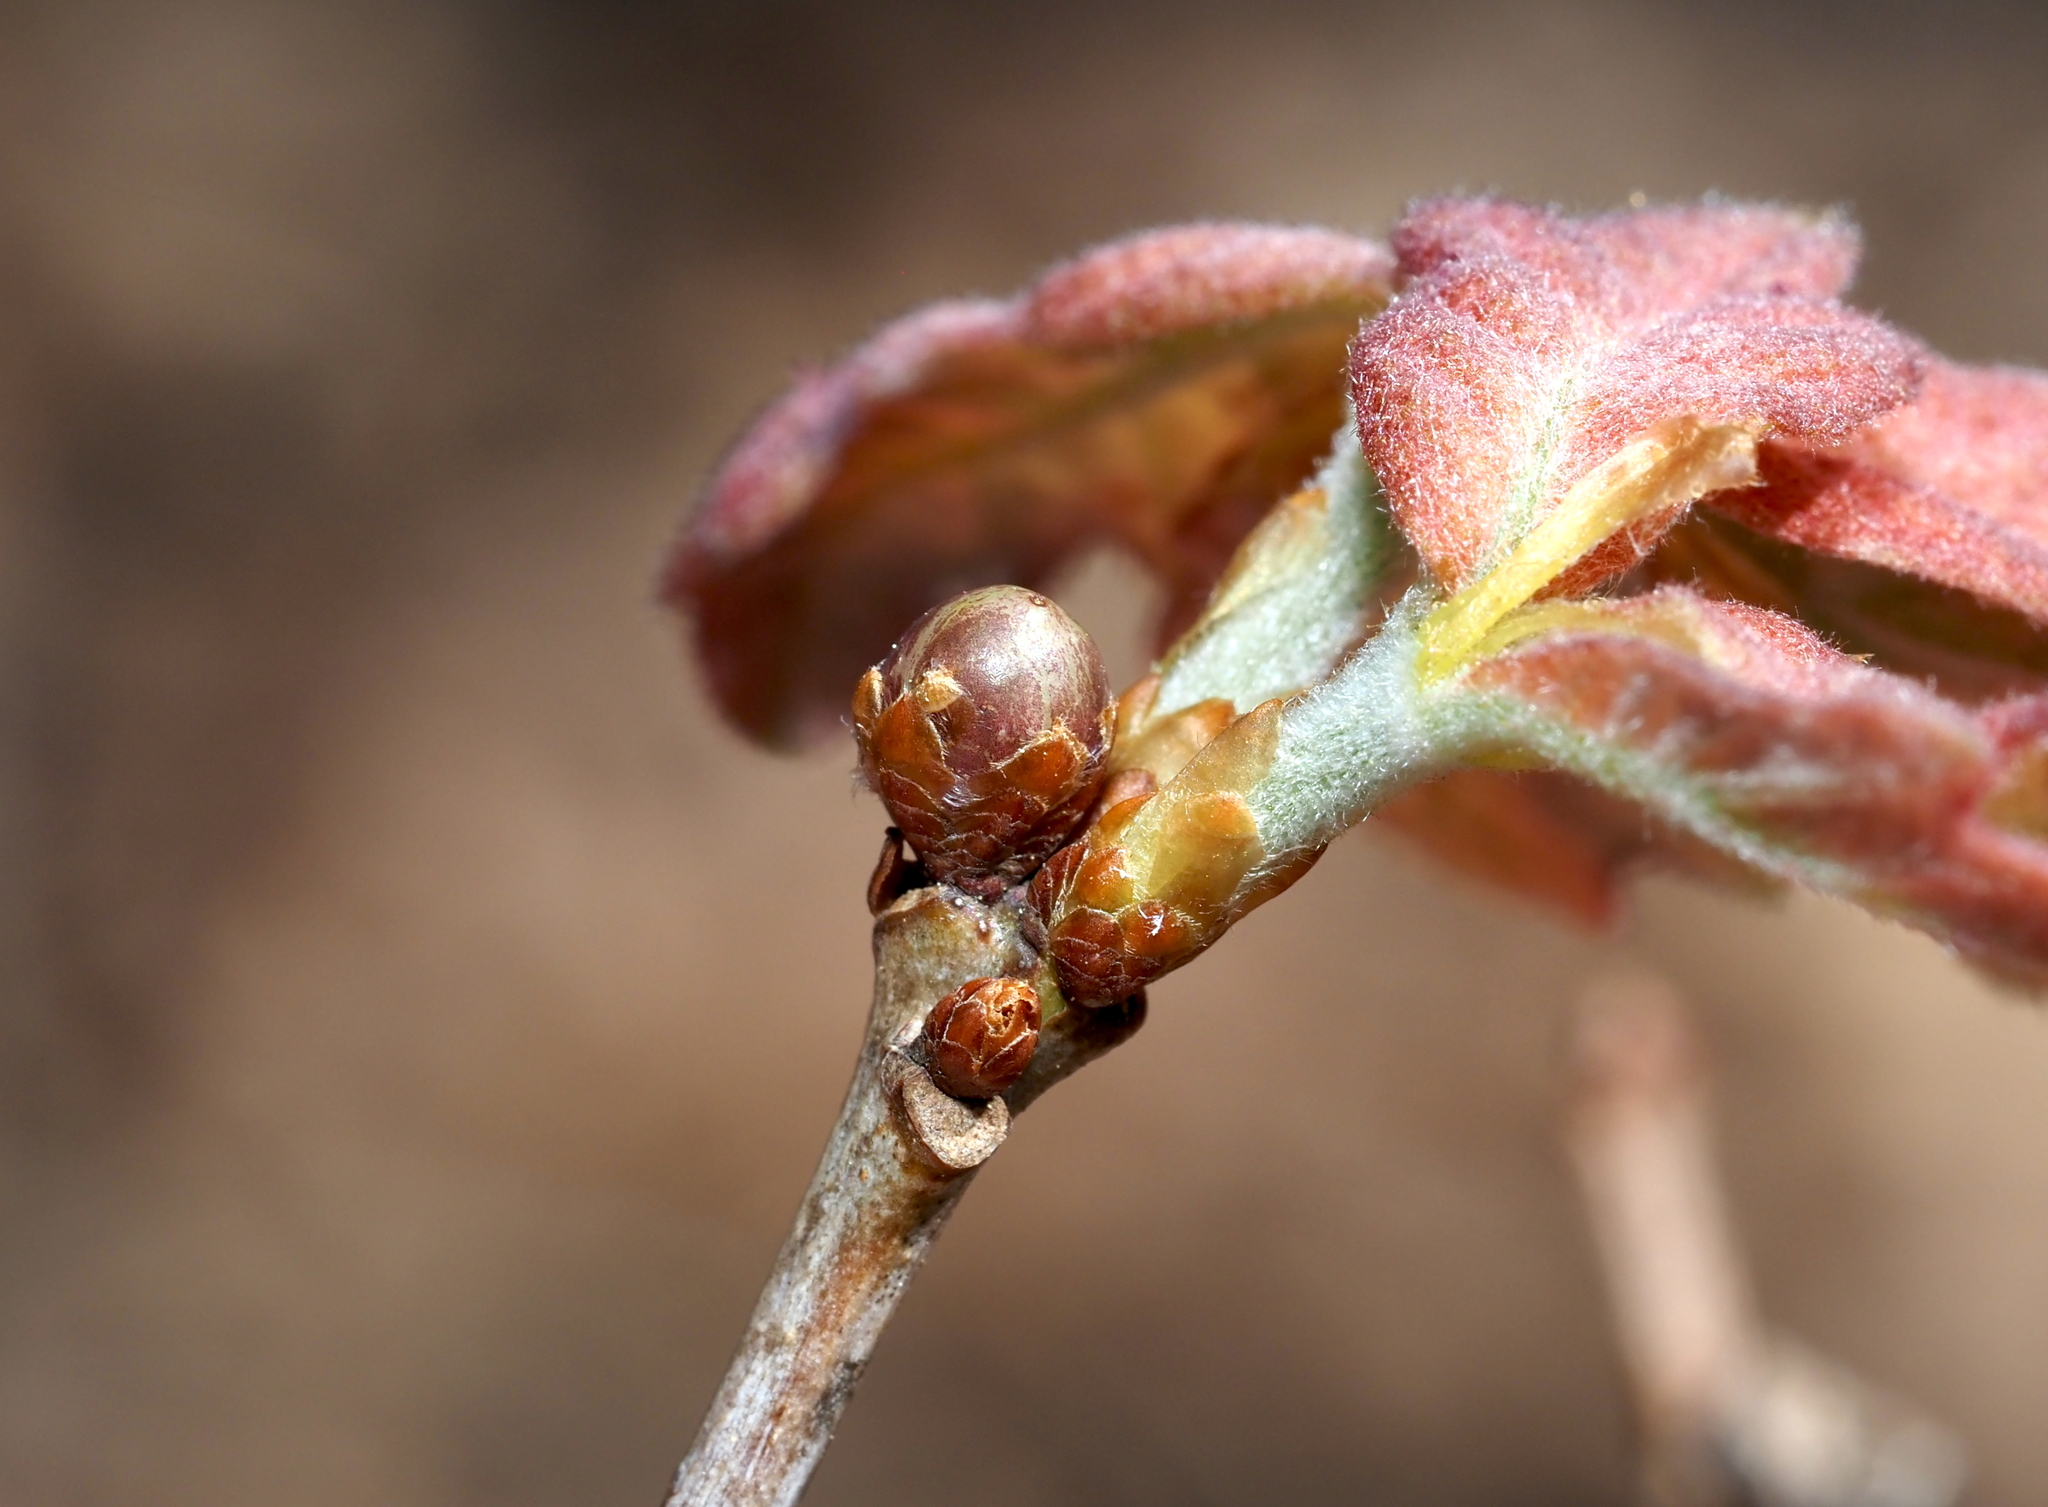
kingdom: Animalia
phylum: Arthropoda
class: Insecta
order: Hymenoptera
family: Cynipidae
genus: Neuroterus
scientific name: Neuroterus
